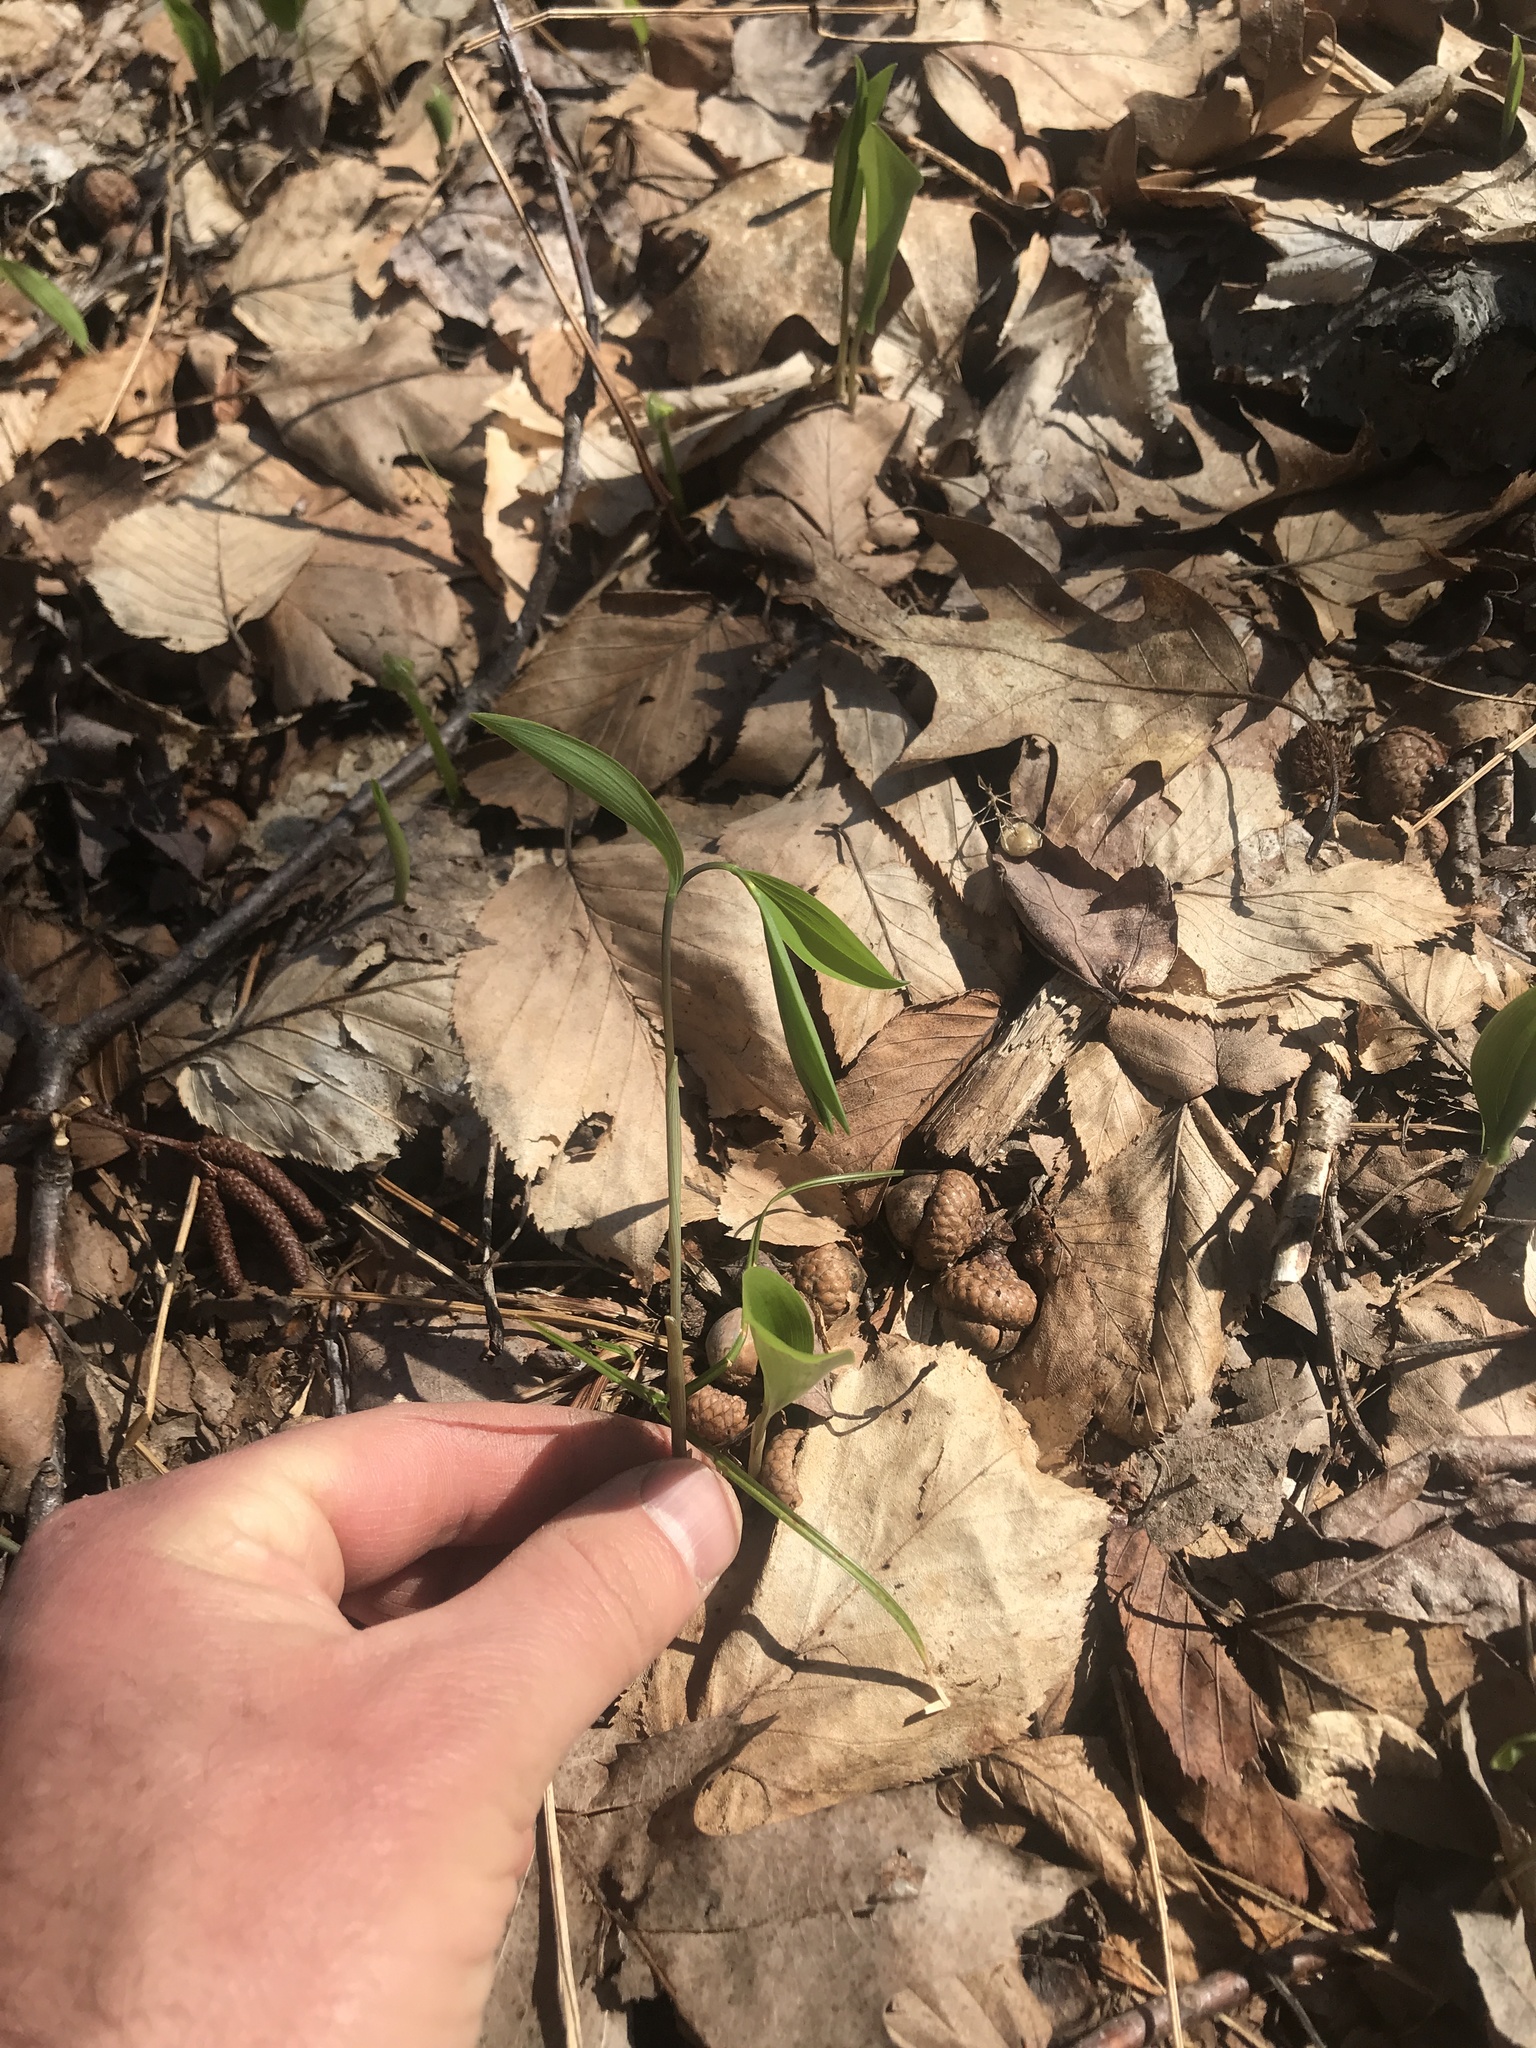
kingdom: Plantae
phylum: Tracheophyta
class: Liliopsida
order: Liliales
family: Colchicaceae
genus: Uvularia
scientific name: Uvularia sessilifolia
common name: Straw-lily
